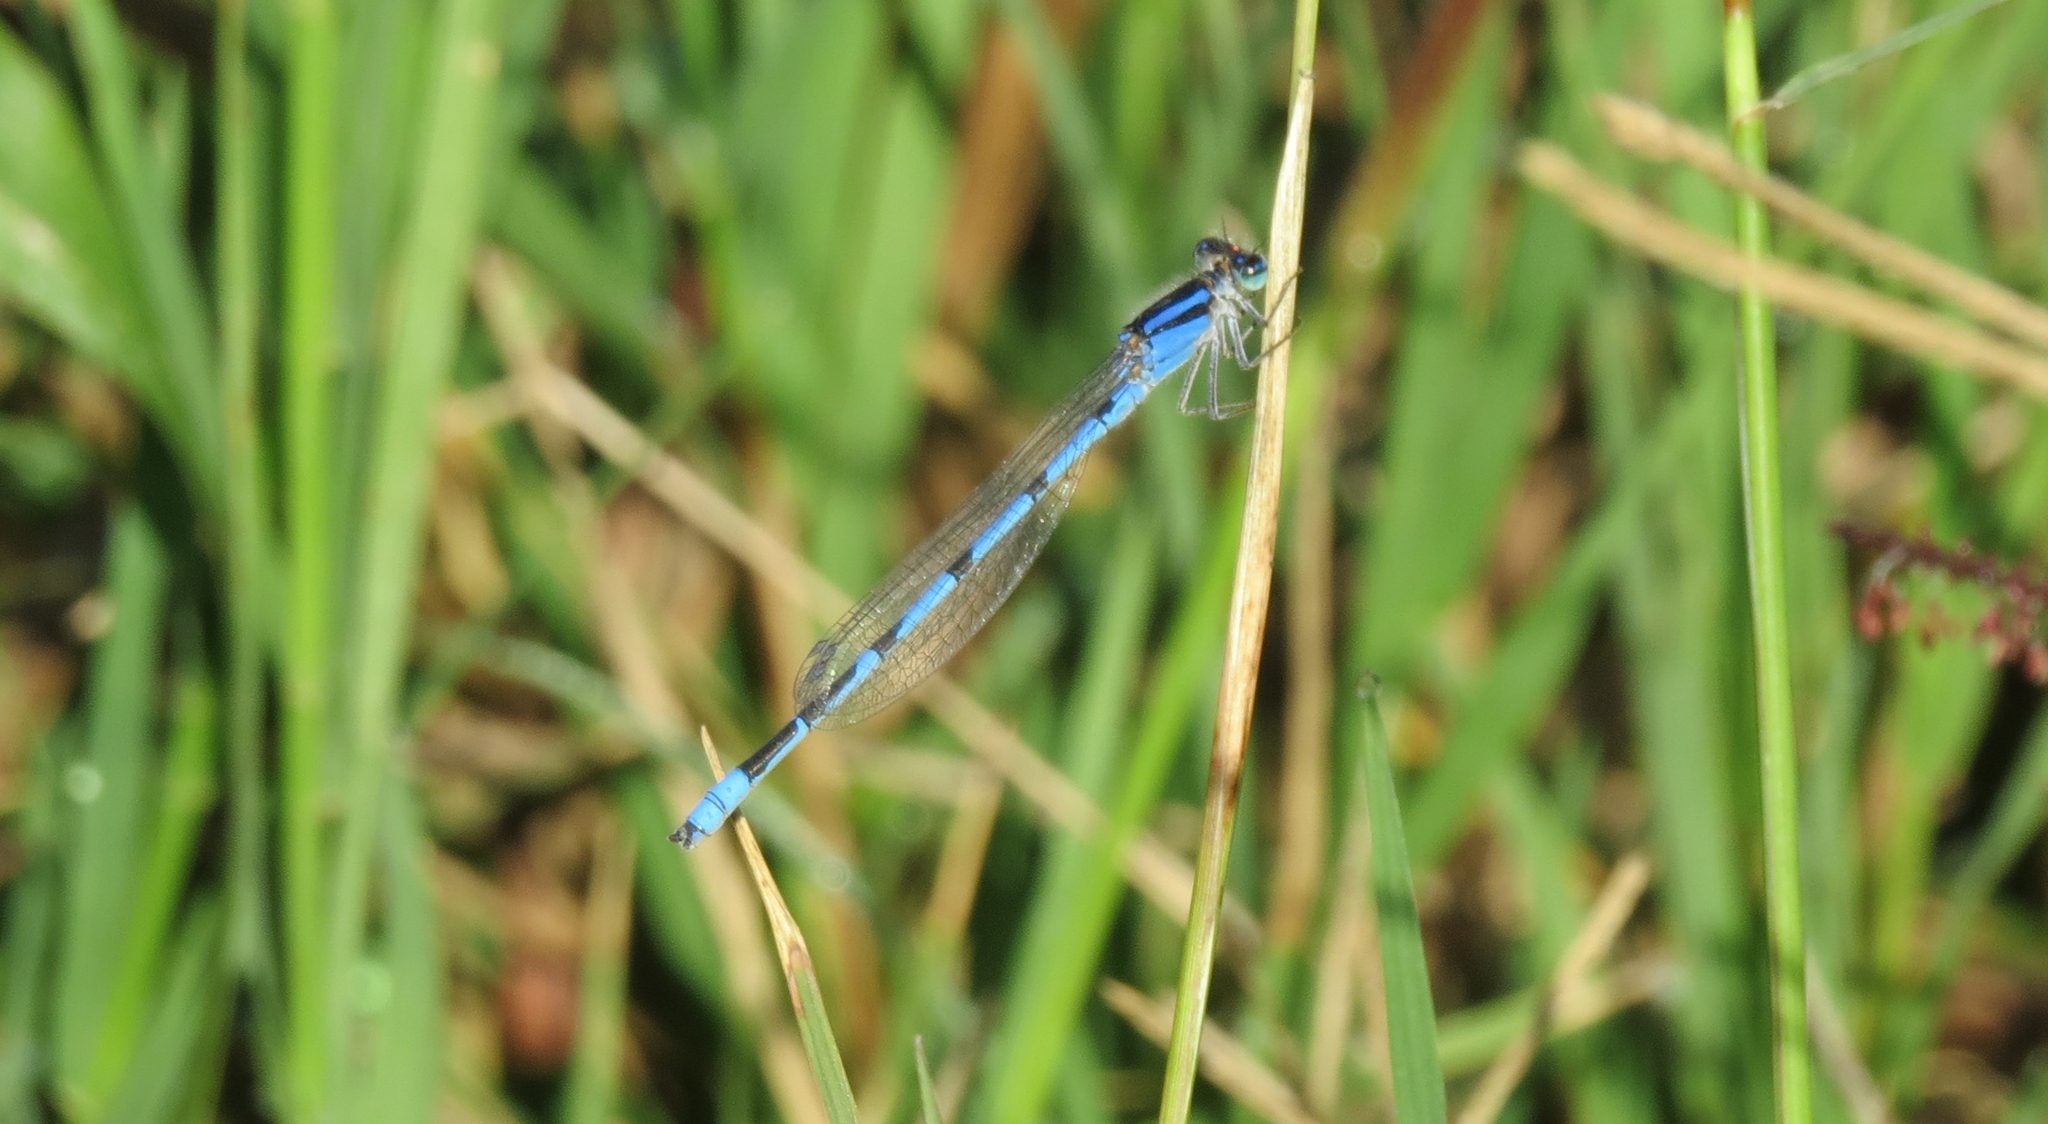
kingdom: Animalia
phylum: Arthropoda
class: Insecta
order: Odonata
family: Coenagrionidae
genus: Enallagma
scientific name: Enallagma civile
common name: Damselfly
